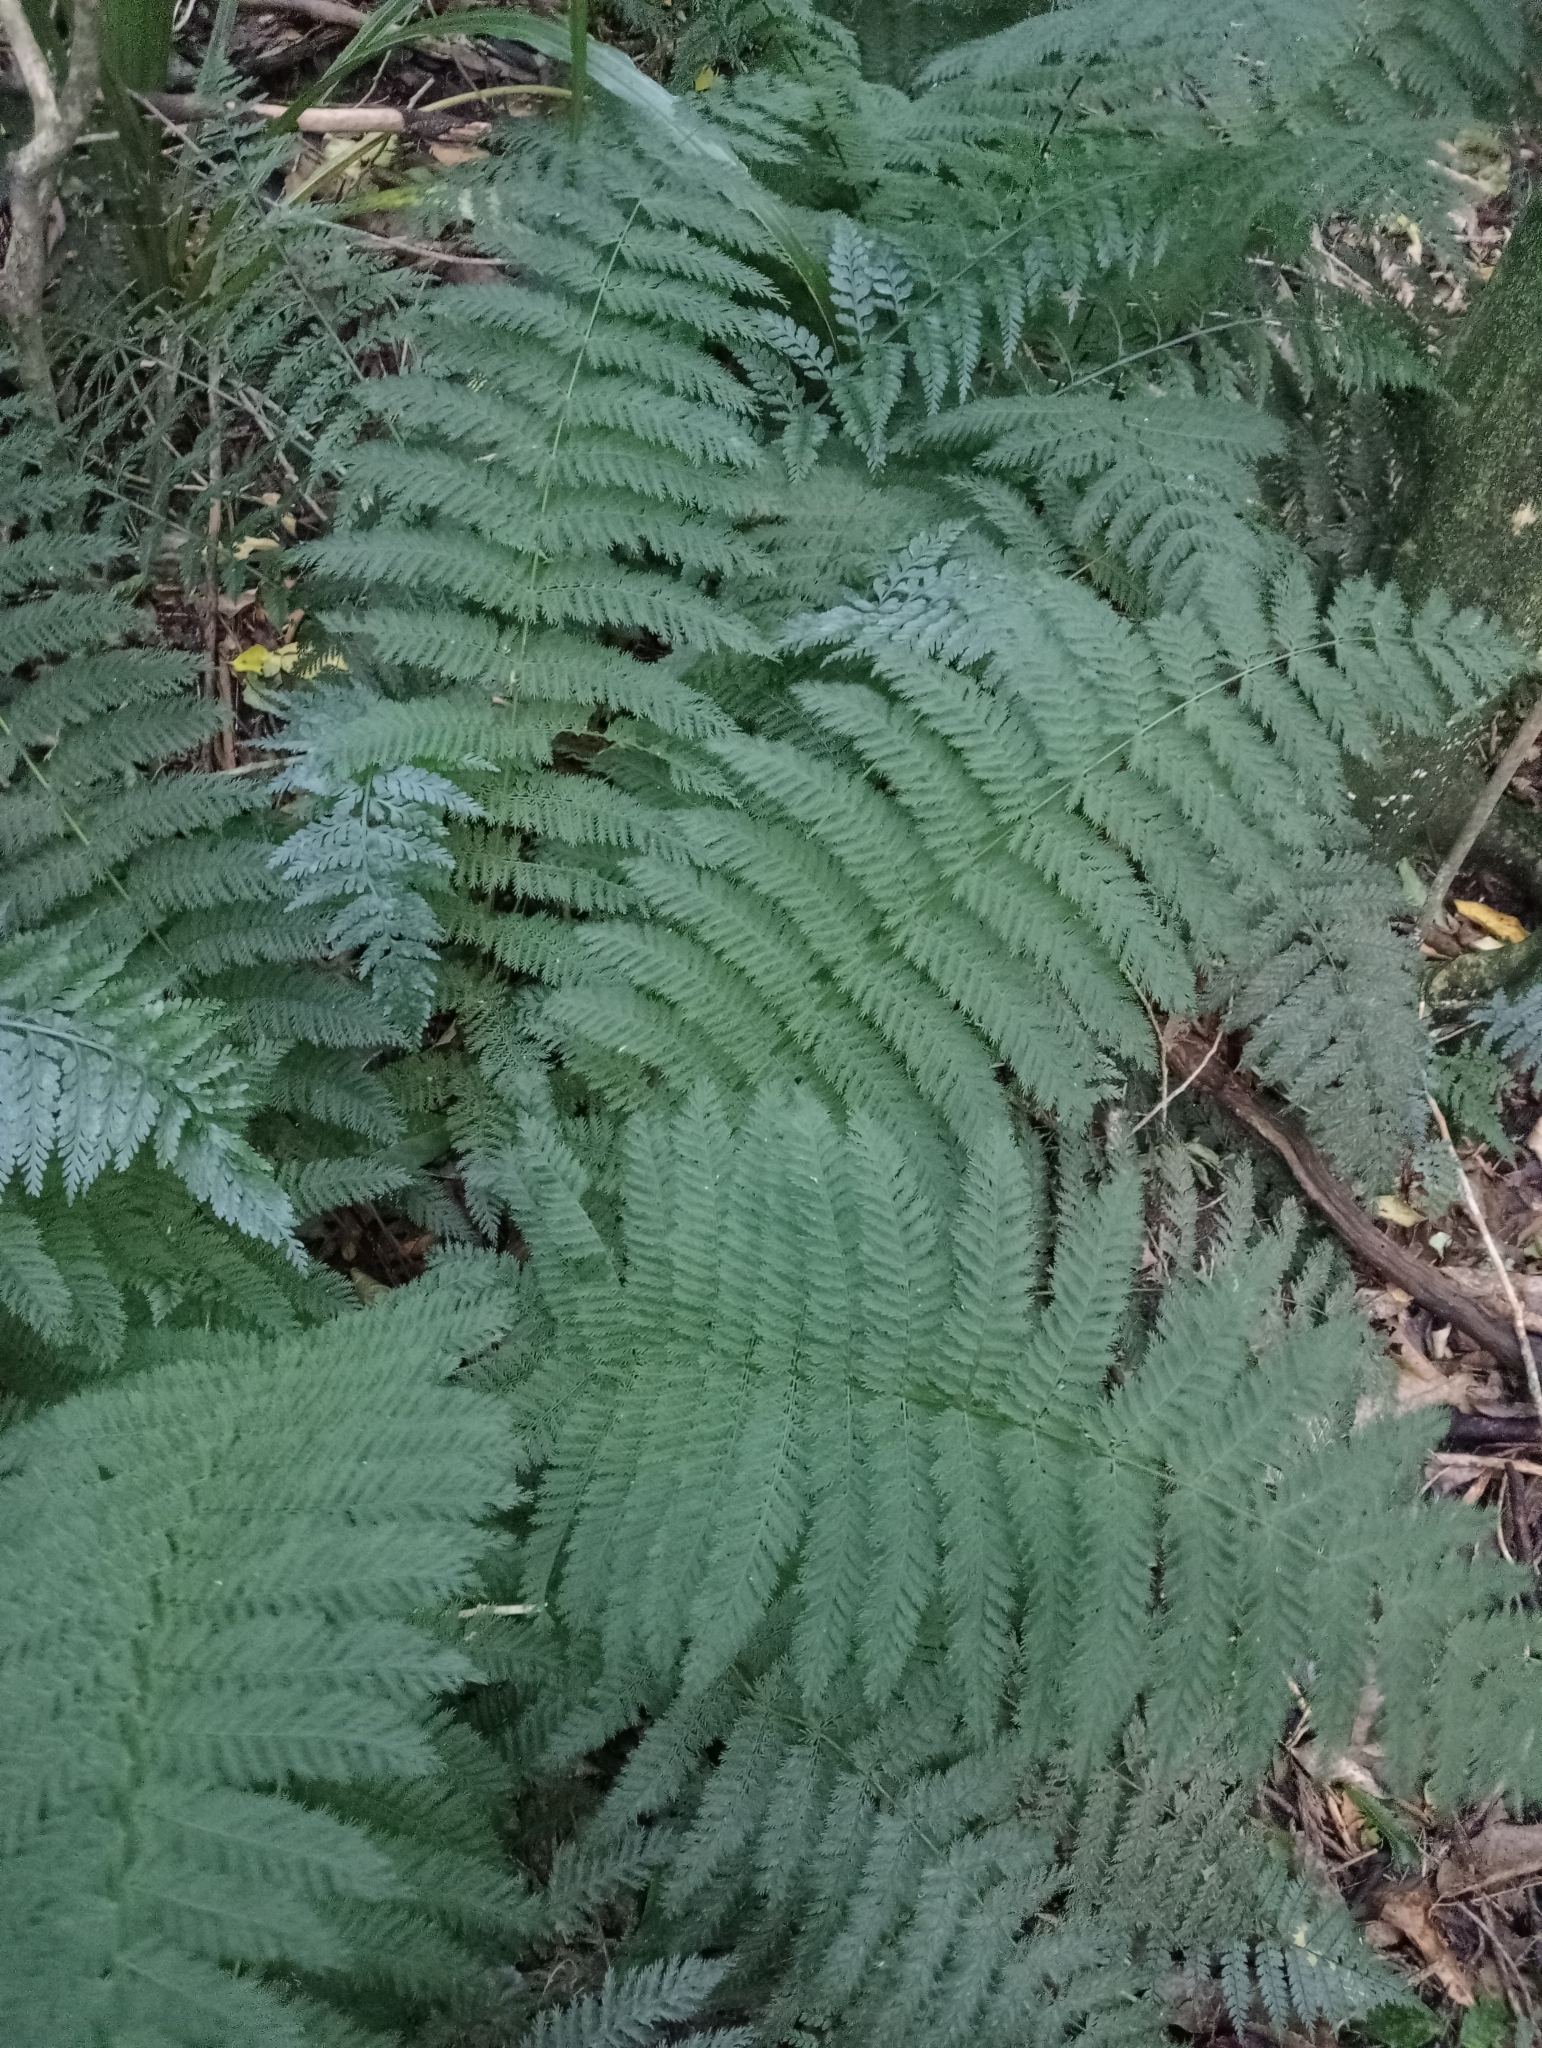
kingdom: Plantae
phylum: Tracheophyta
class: Polypodiopsida
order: Osmundales
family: Osmundaceae
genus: Leptopteris
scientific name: Leptopteris hymenophylloides
